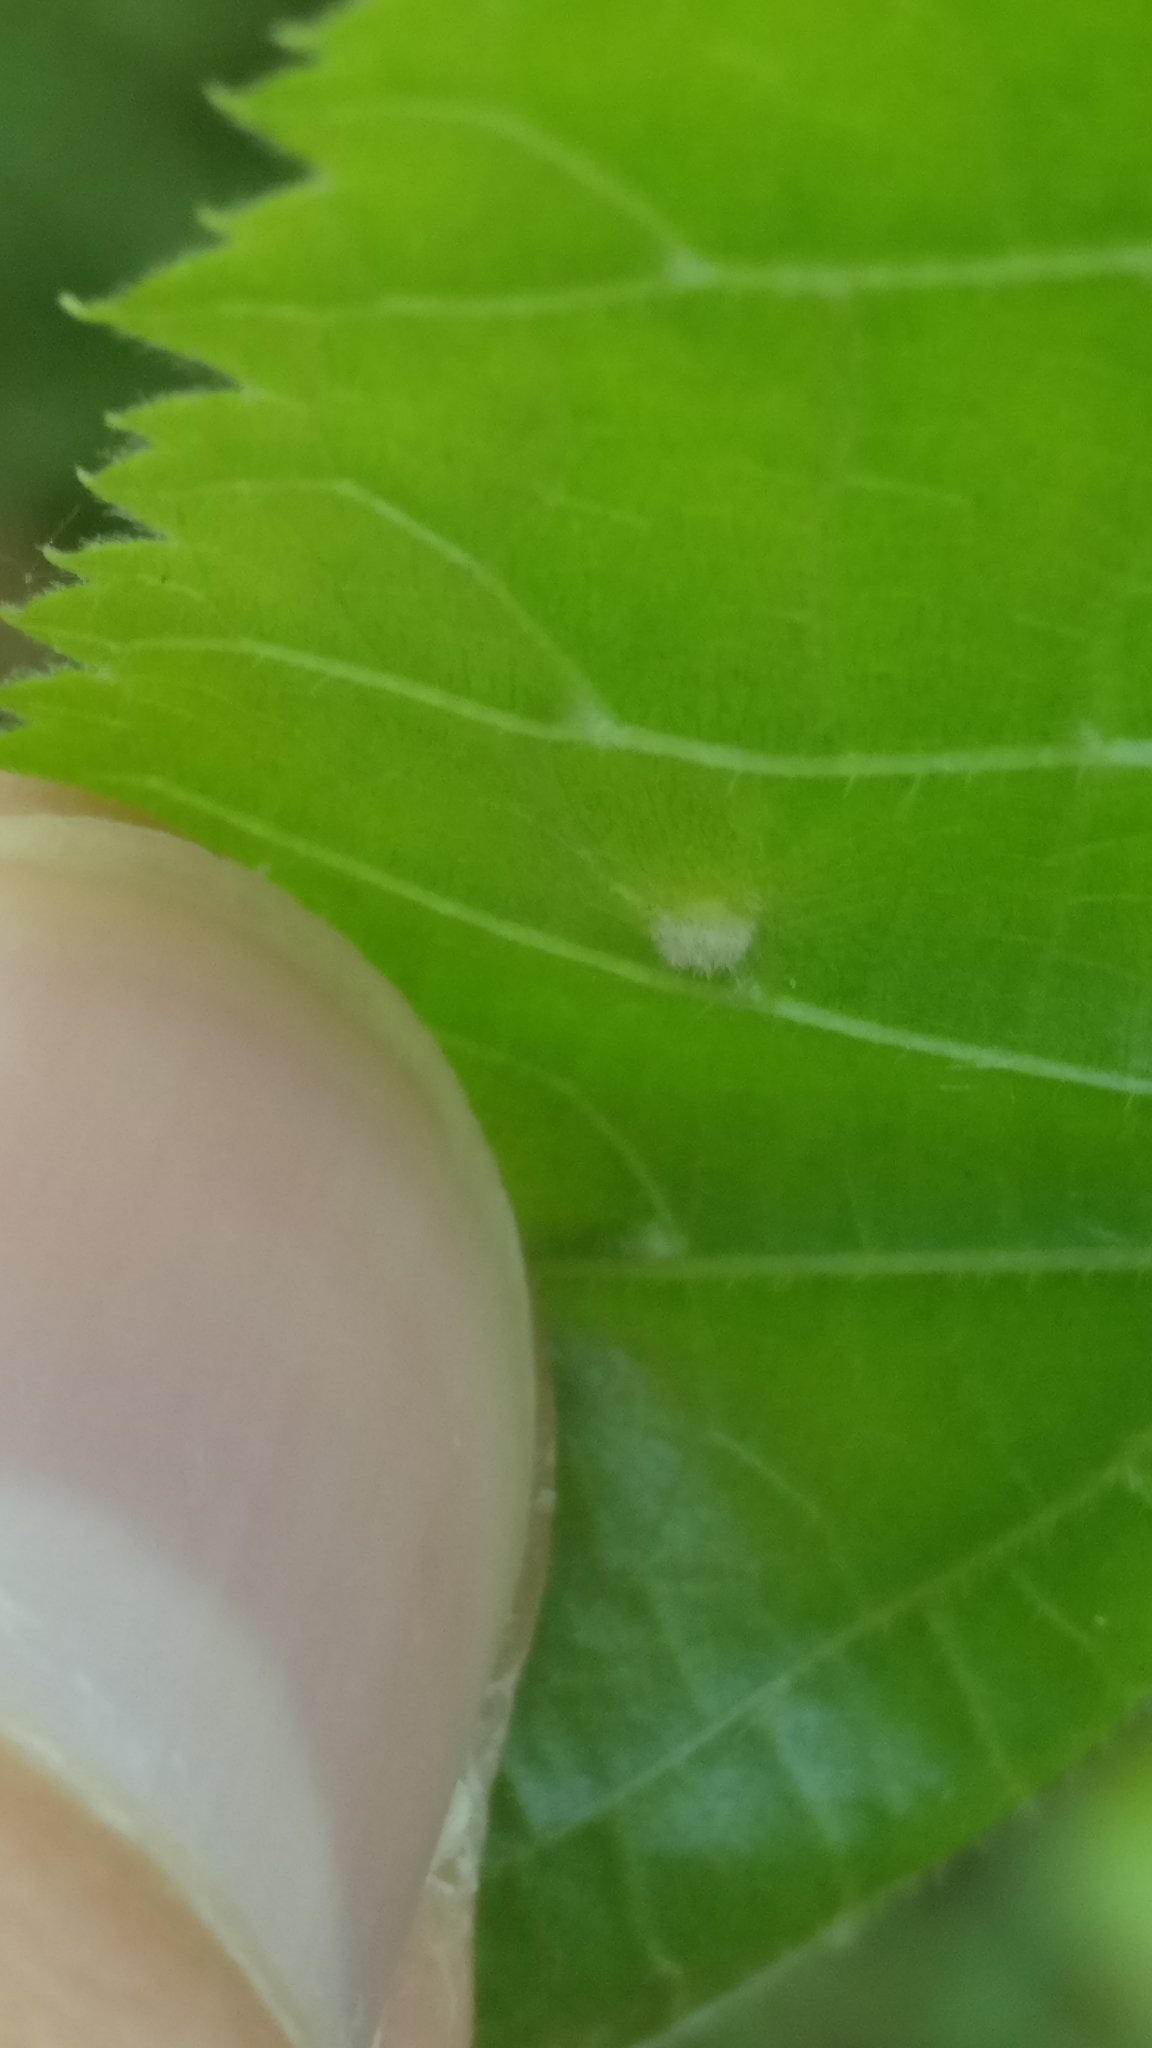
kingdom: Animalia
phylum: Arthropoda
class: Arachnida
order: Trombidiformes
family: Eriophyidae
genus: Eriophyes
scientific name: Eriophyes tiliae
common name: Red nail gall mite
